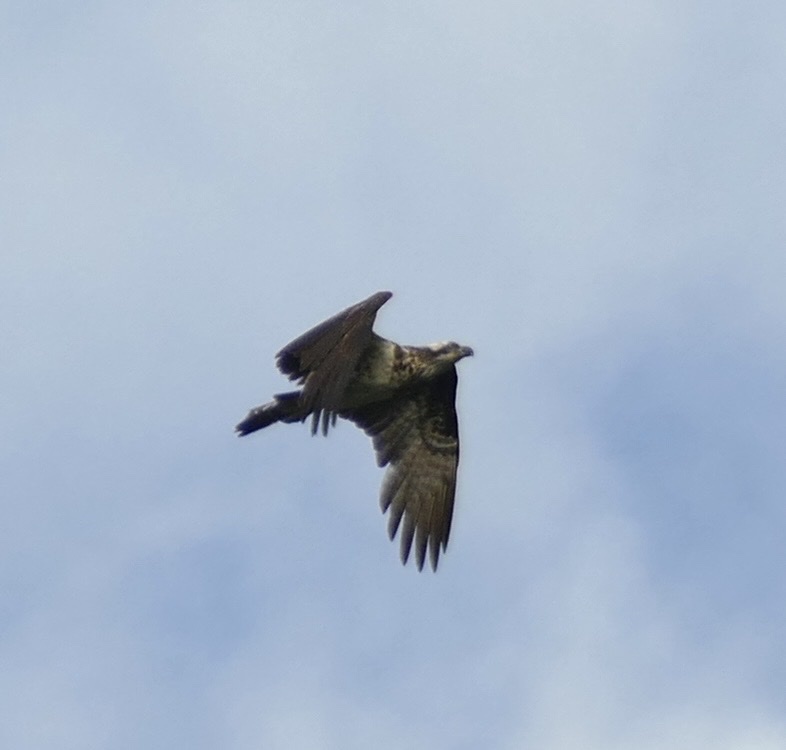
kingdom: Animalia
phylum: Chordata
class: Aves
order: Accipitriformes
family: Pandionidae
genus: Pandion
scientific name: Pandion haliaetus
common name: Osprey
